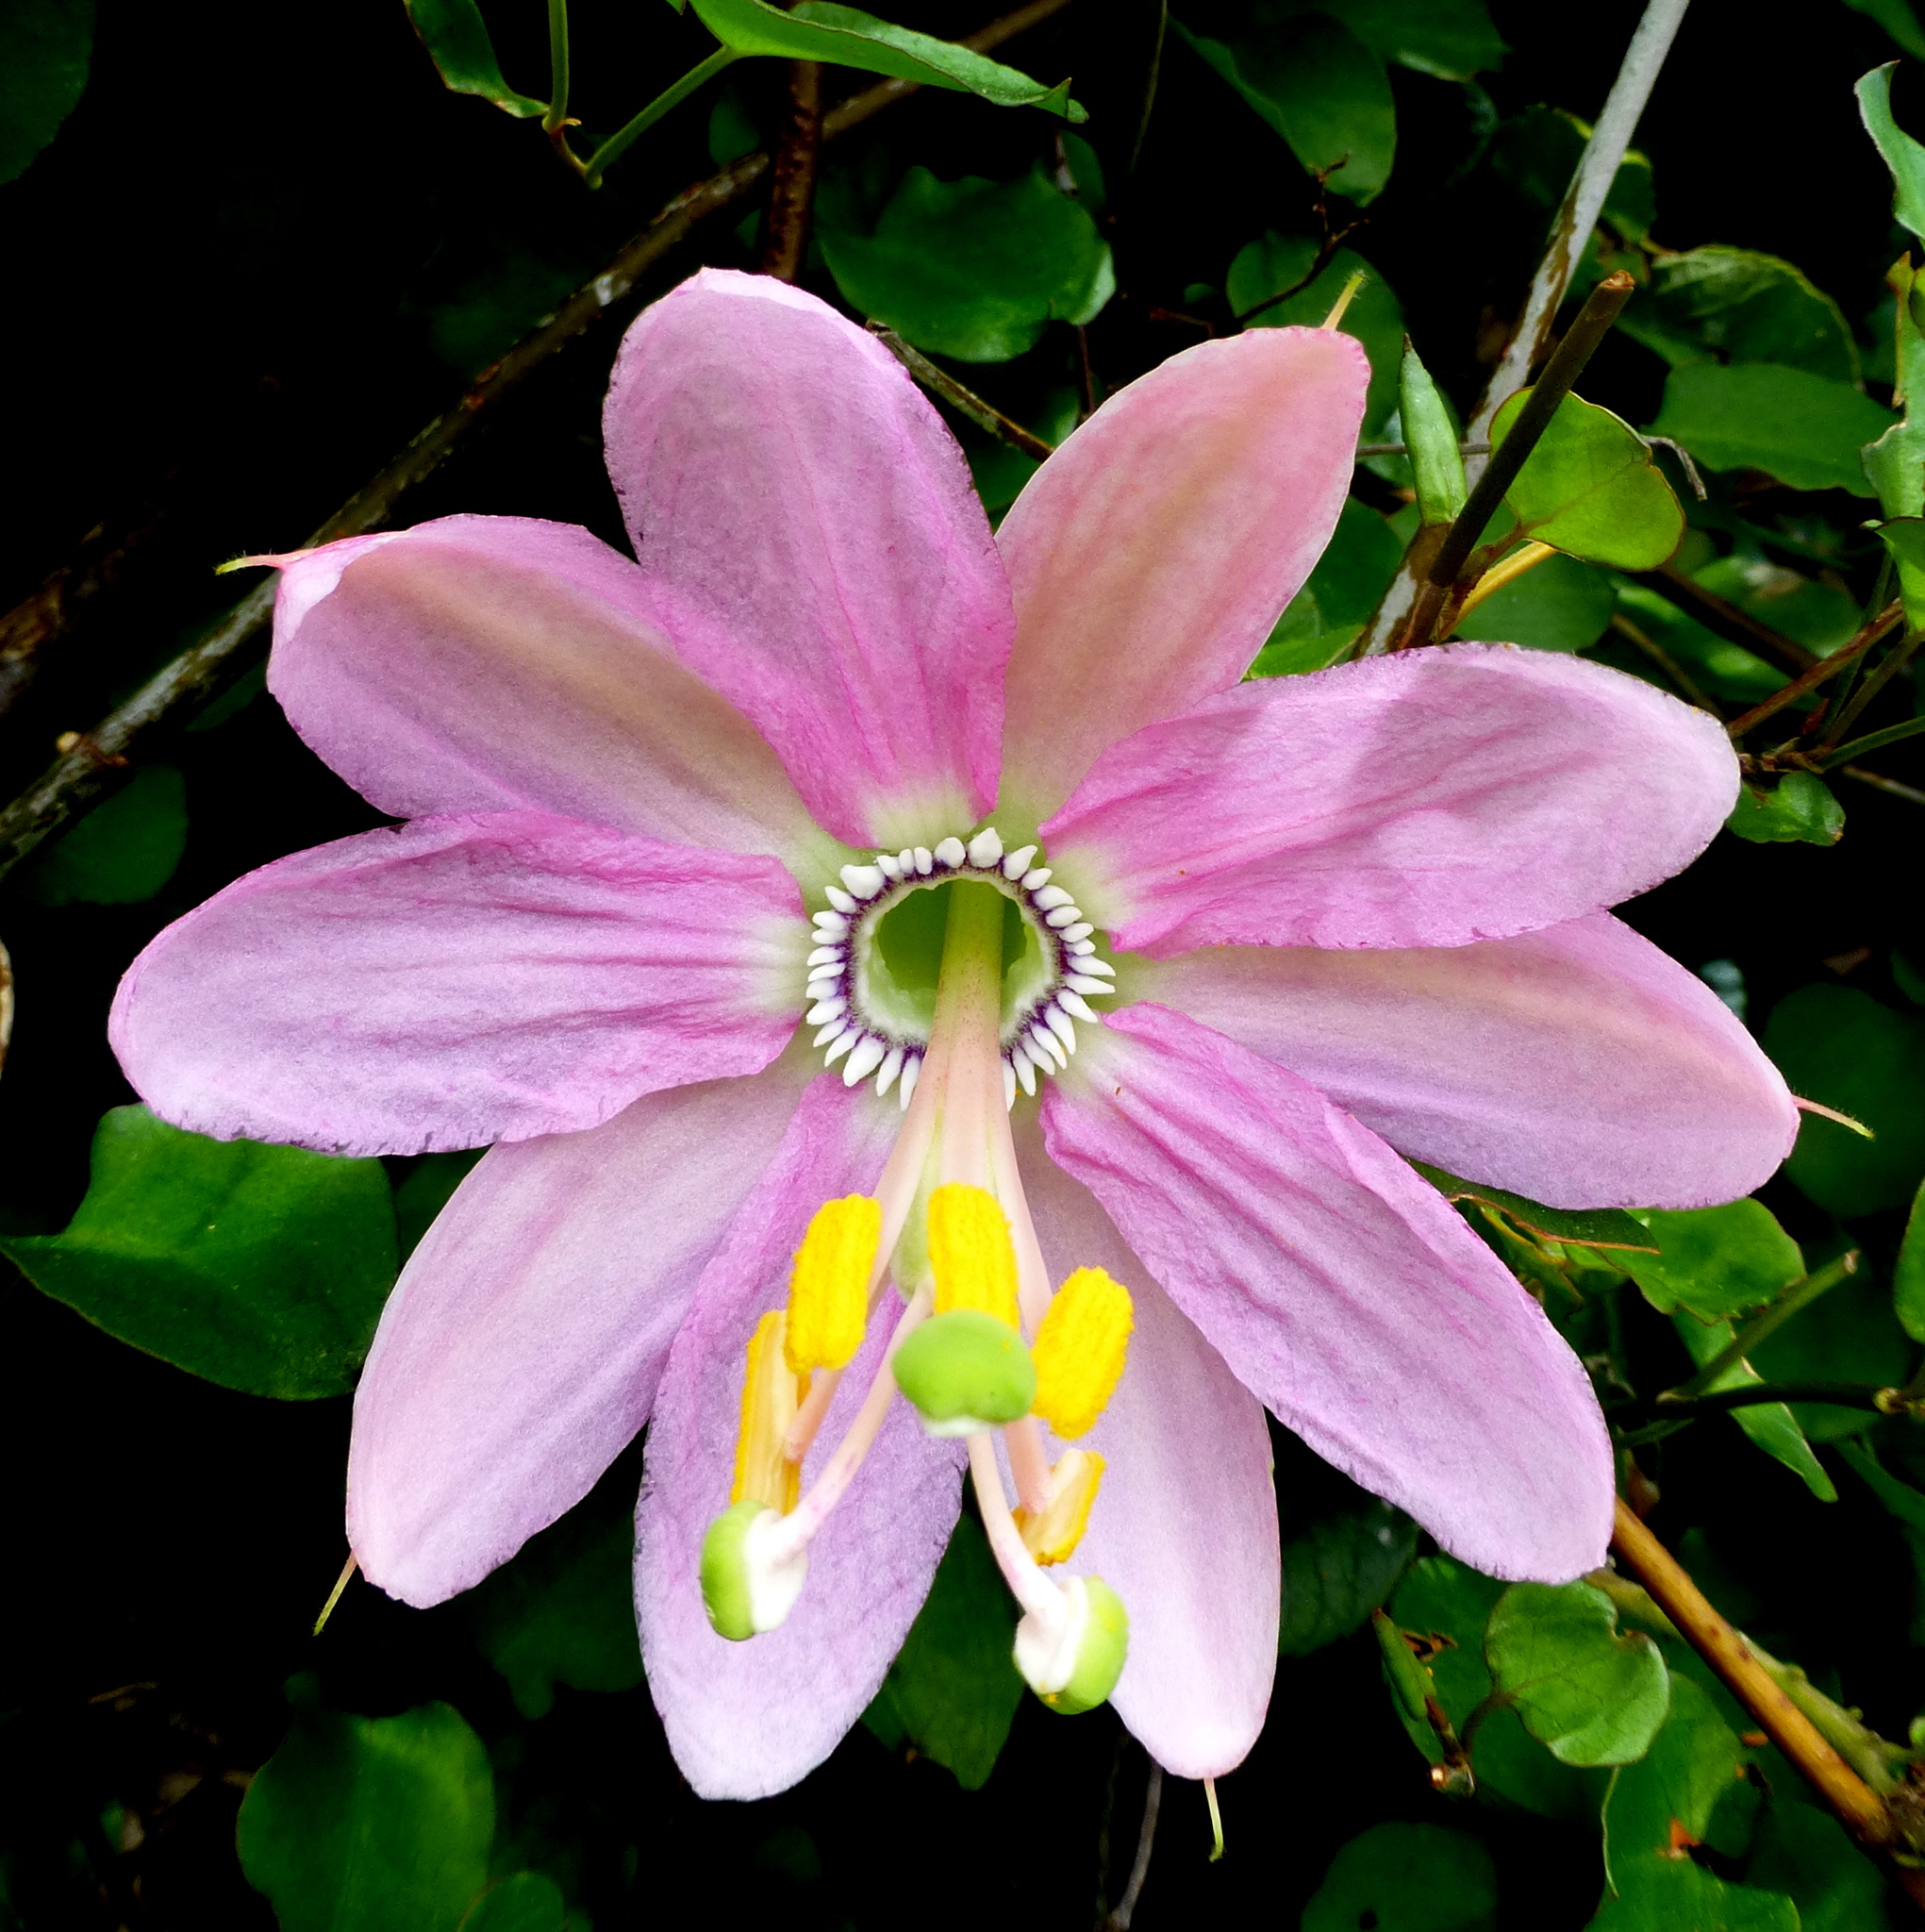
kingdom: Plantae
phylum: Tracheophyta
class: Magnoliopsida
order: Malpighiales
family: Passifloraceae
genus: Passiflora
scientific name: Passiflora tripartita
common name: Banana poka
